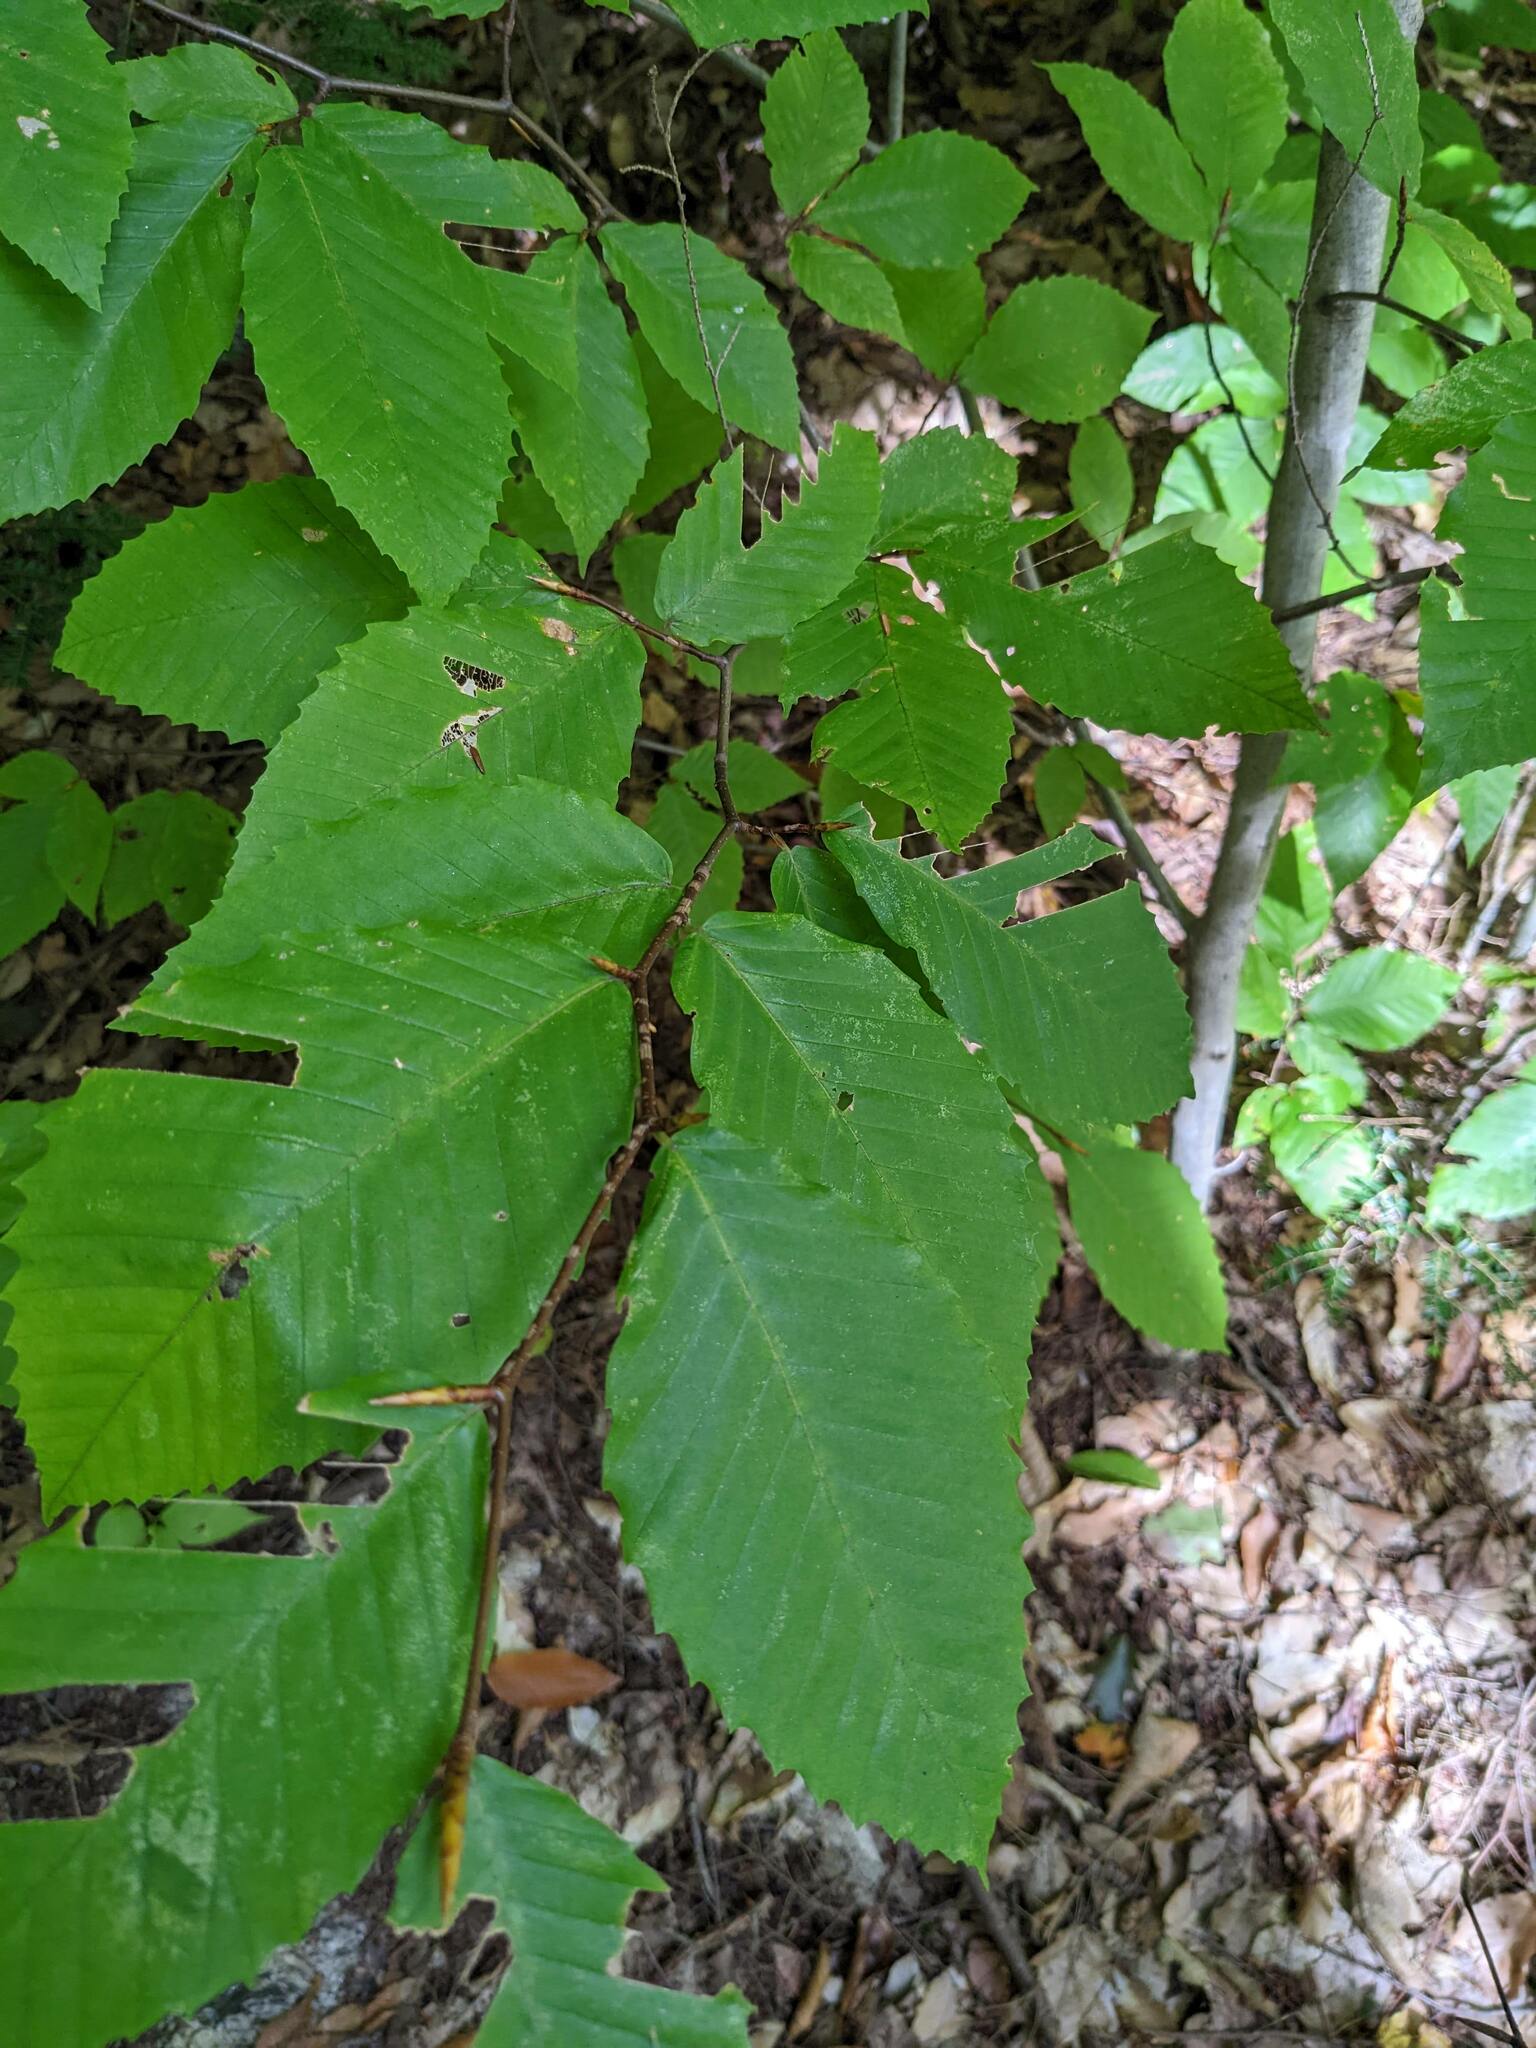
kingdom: Plantae
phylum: Tracheophyta
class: Magnoliopsida
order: Fagales
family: Fagaceae
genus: Fagus
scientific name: Fagus grandifolia
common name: American beech
